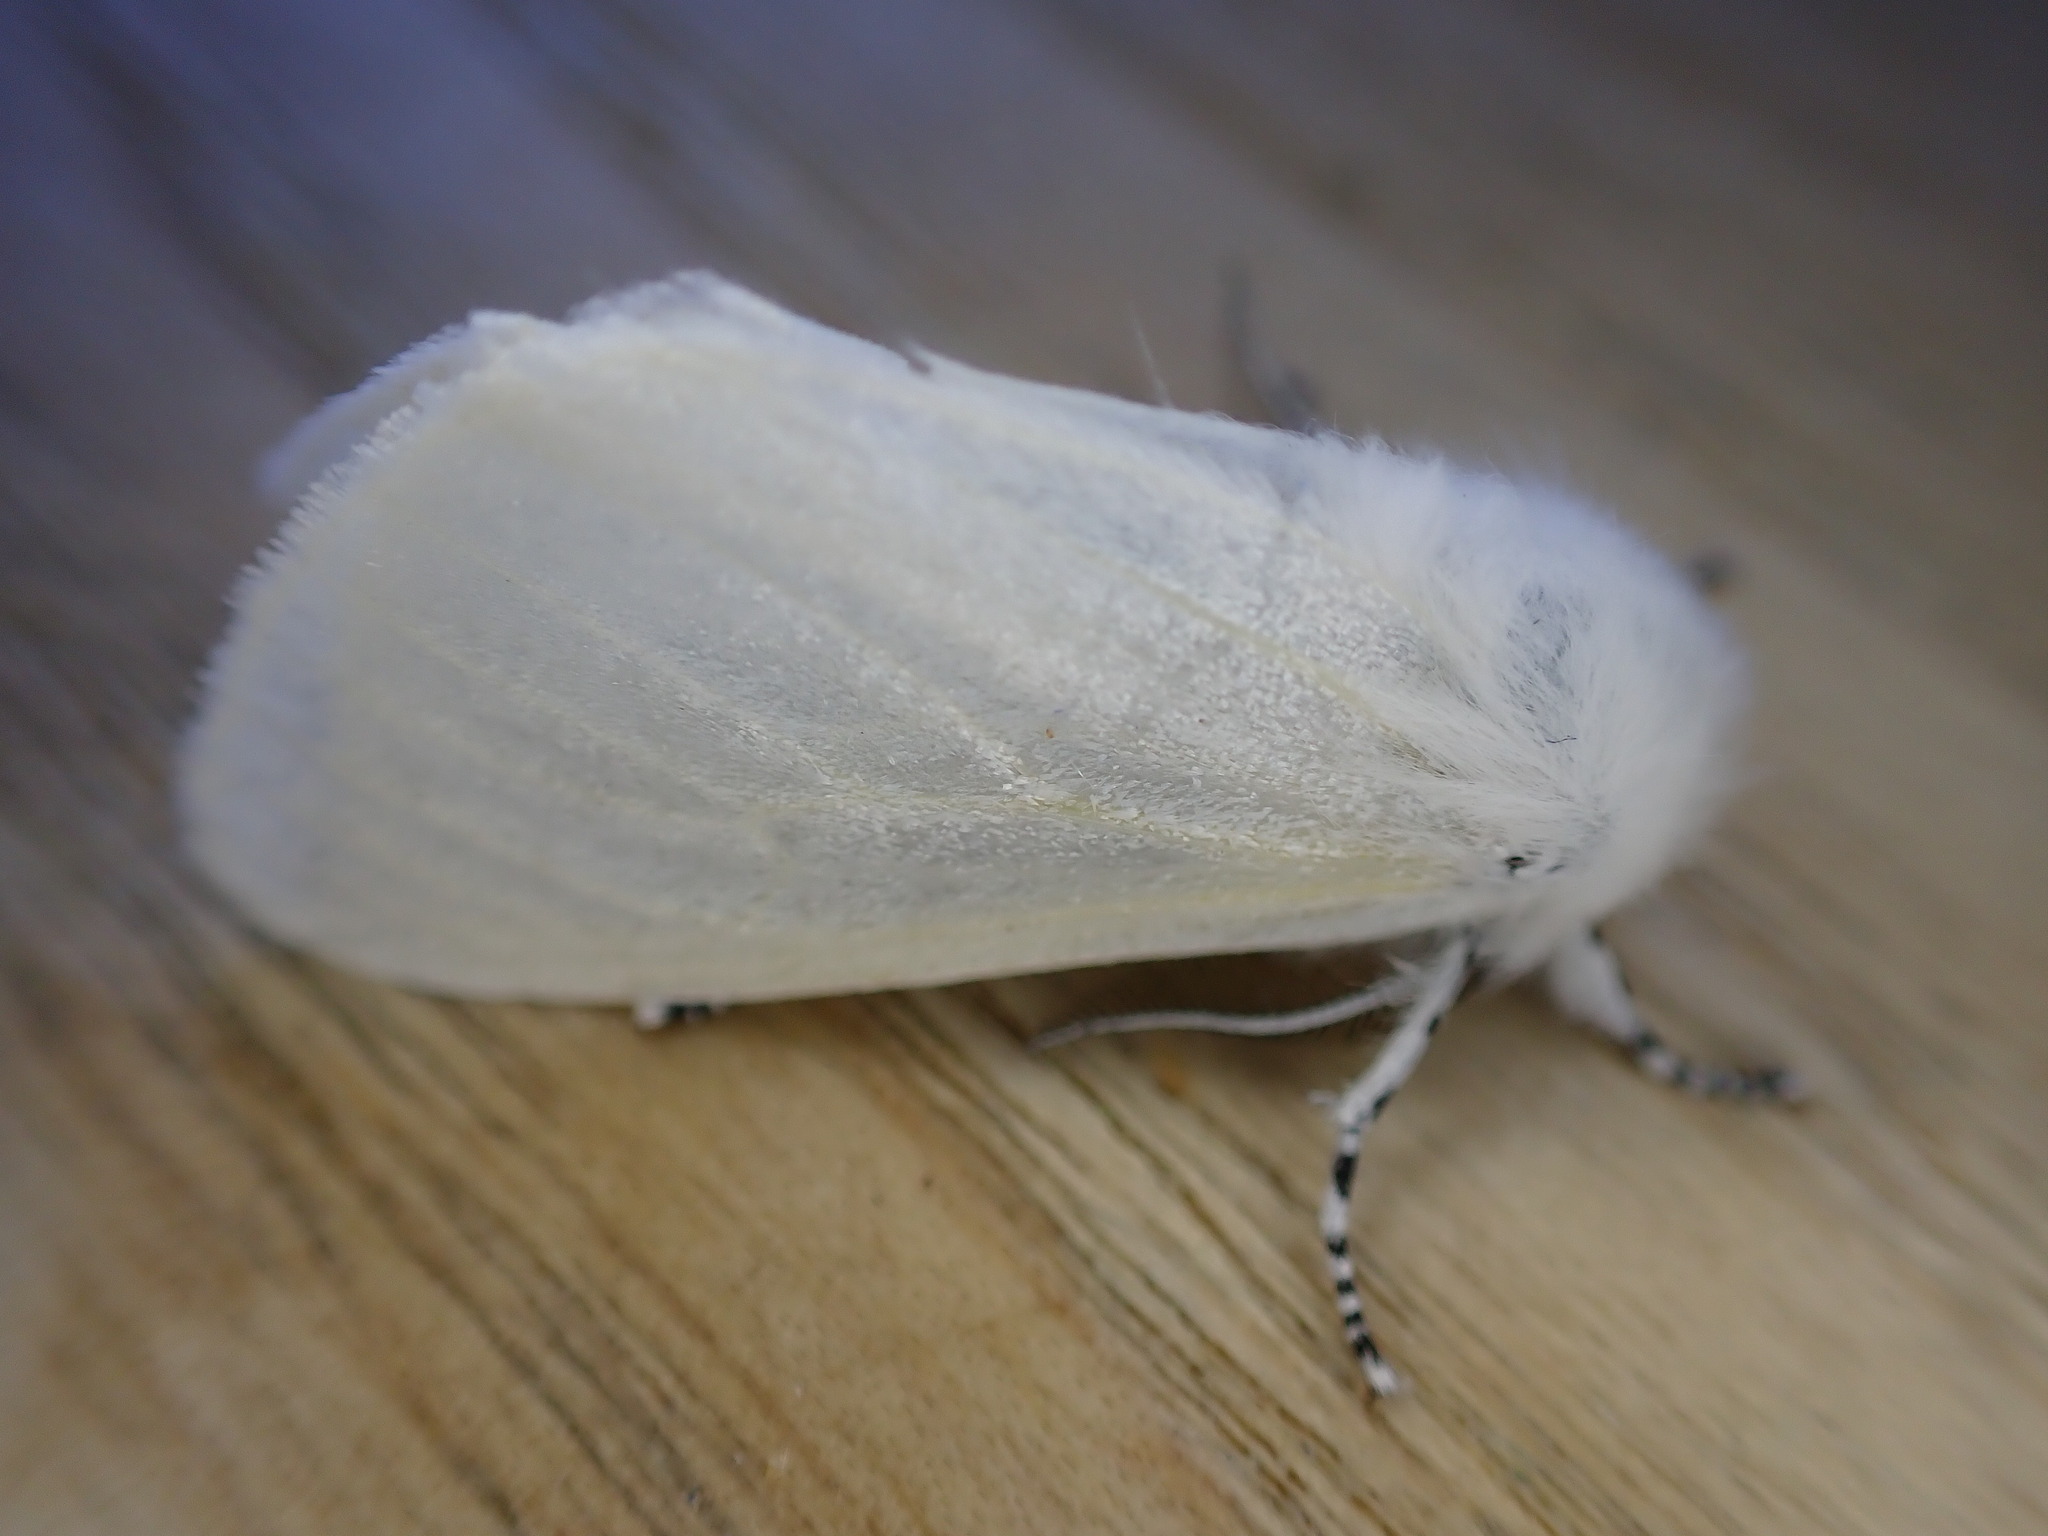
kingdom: Animalia
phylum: Arthropoda
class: Insecta
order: Lepidoptera
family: Erebidae
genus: Leucoma
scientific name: Leucoma salicis
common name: White satin moth
